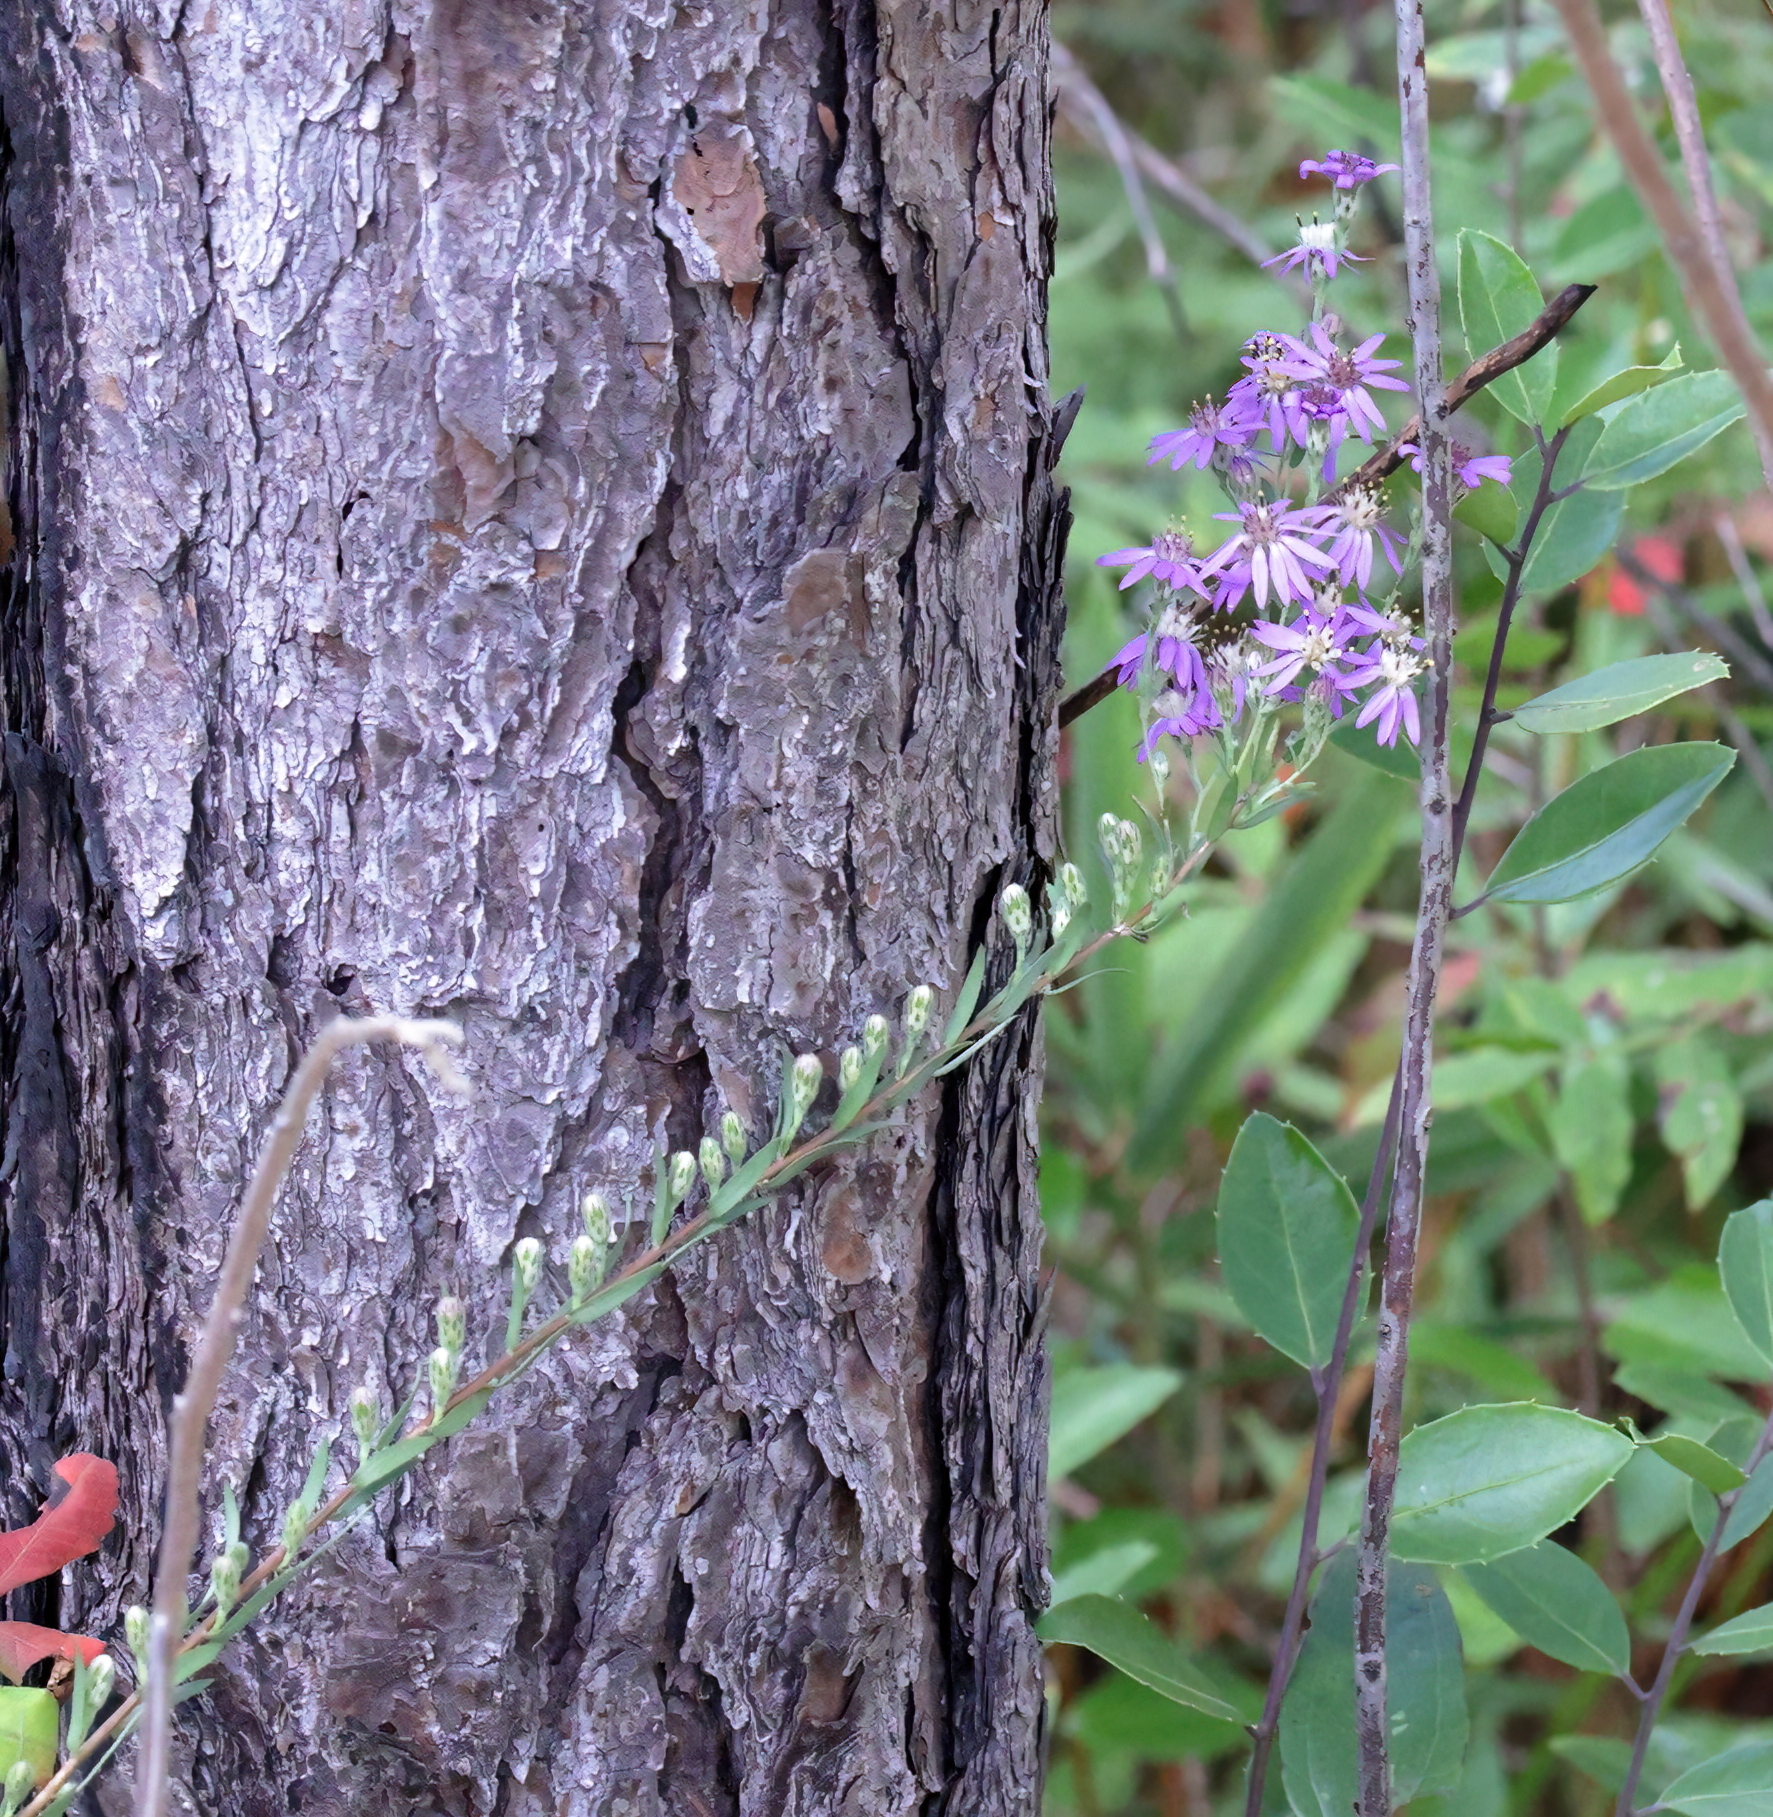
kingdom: Plantae
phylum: Tracheophyta
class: Magnoliopsida
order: Asterales
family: Asteraceae
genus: Symphyotrichum
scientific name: Symphyotrichum concolor
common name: Eastern silver aster
